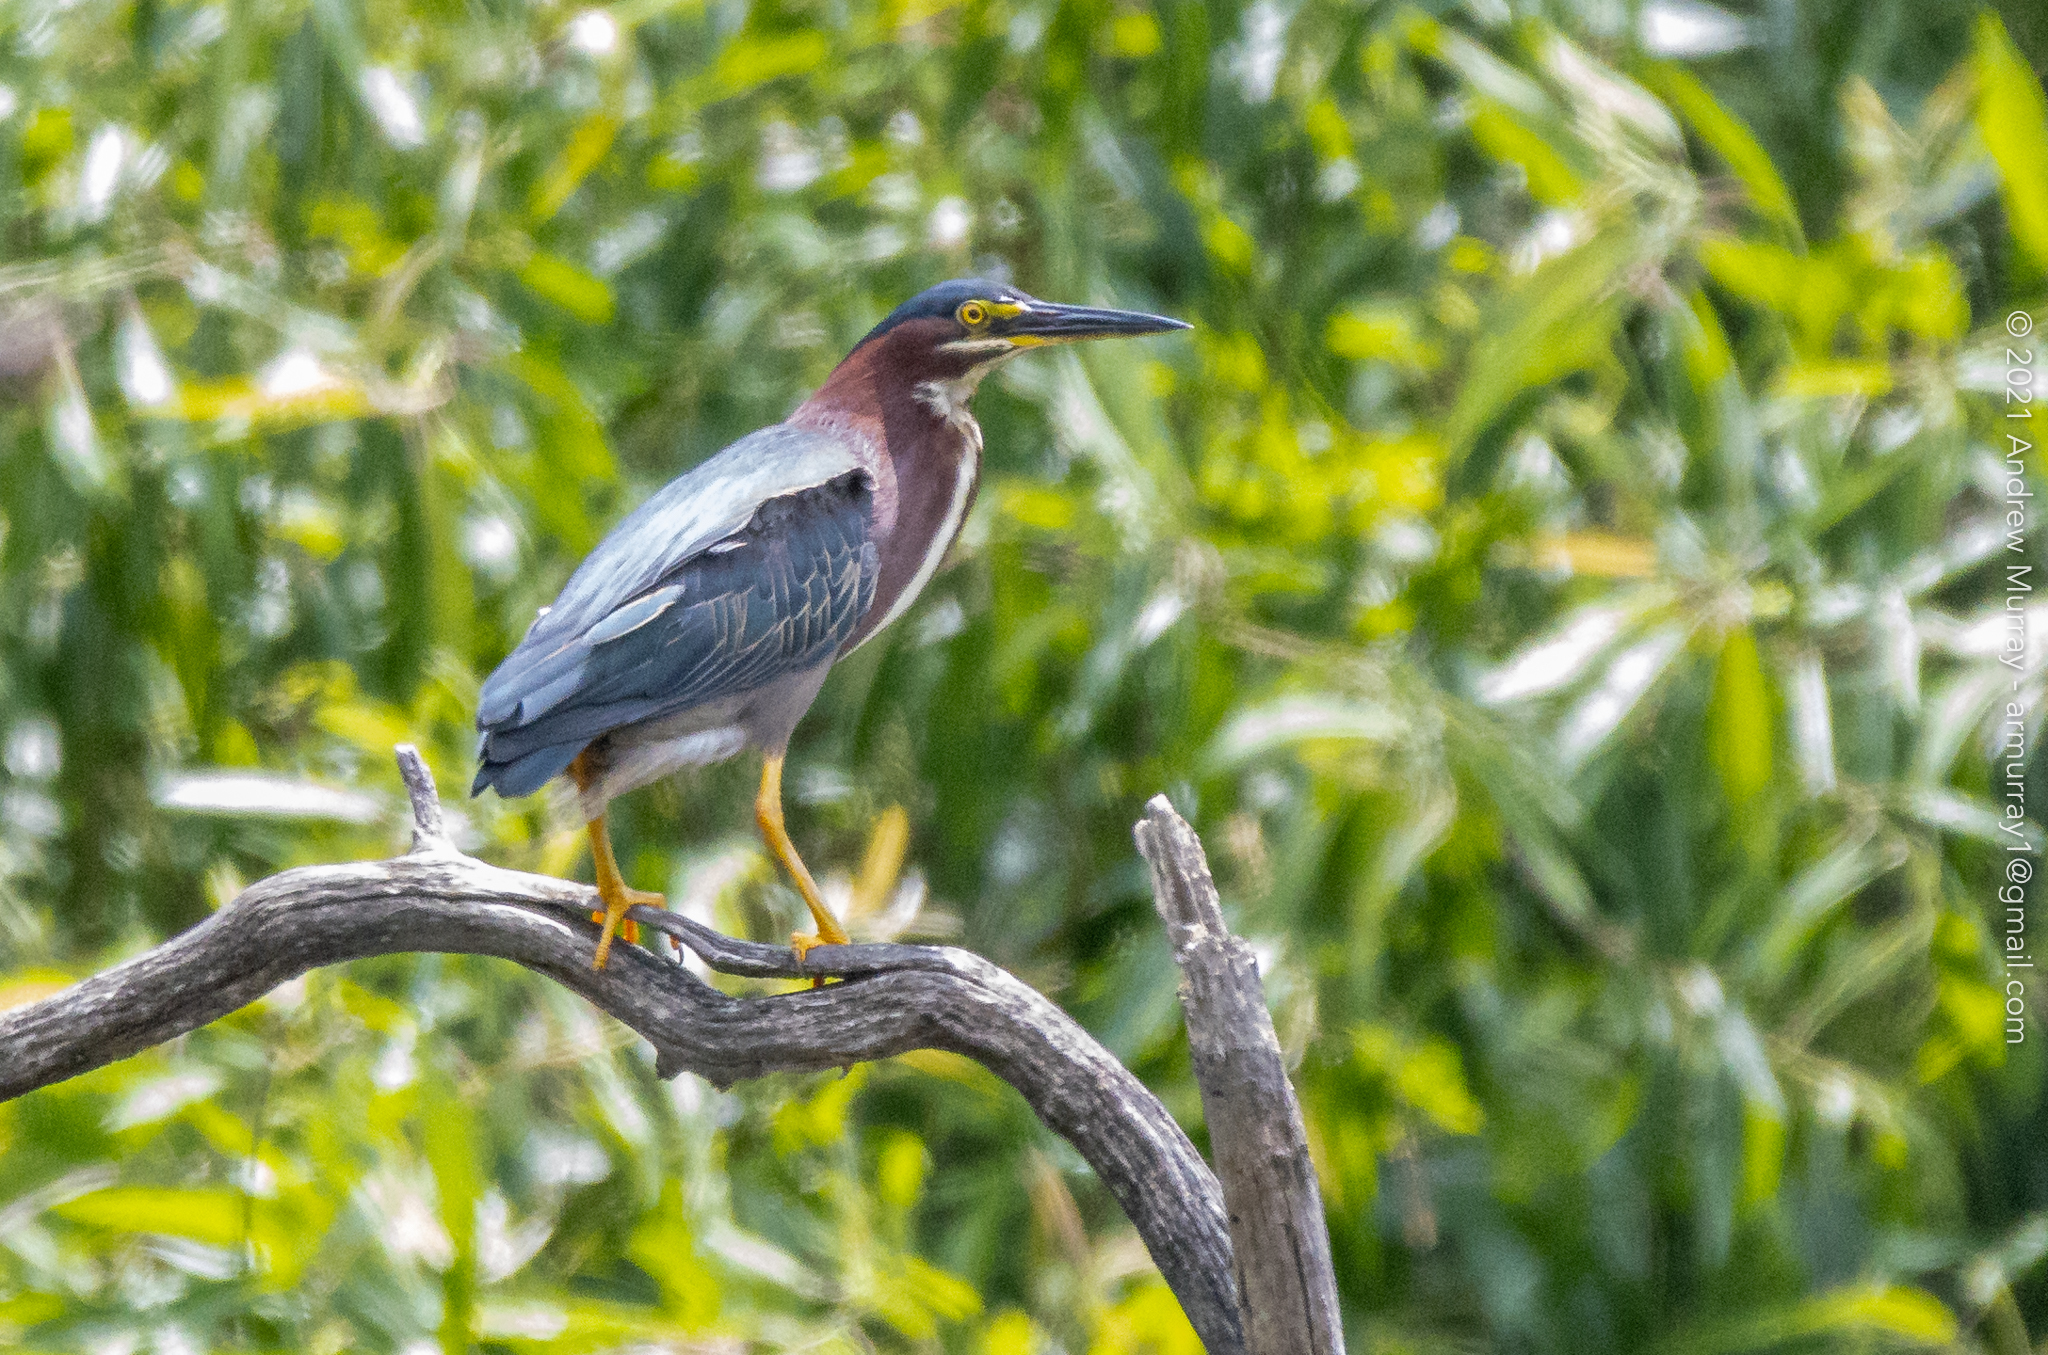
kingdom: Animalia
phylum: Chordata
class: Aves
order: Pelecaniformes
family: Ardeidae
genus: Butorides
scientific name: Butorides virescens
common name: Green heron
